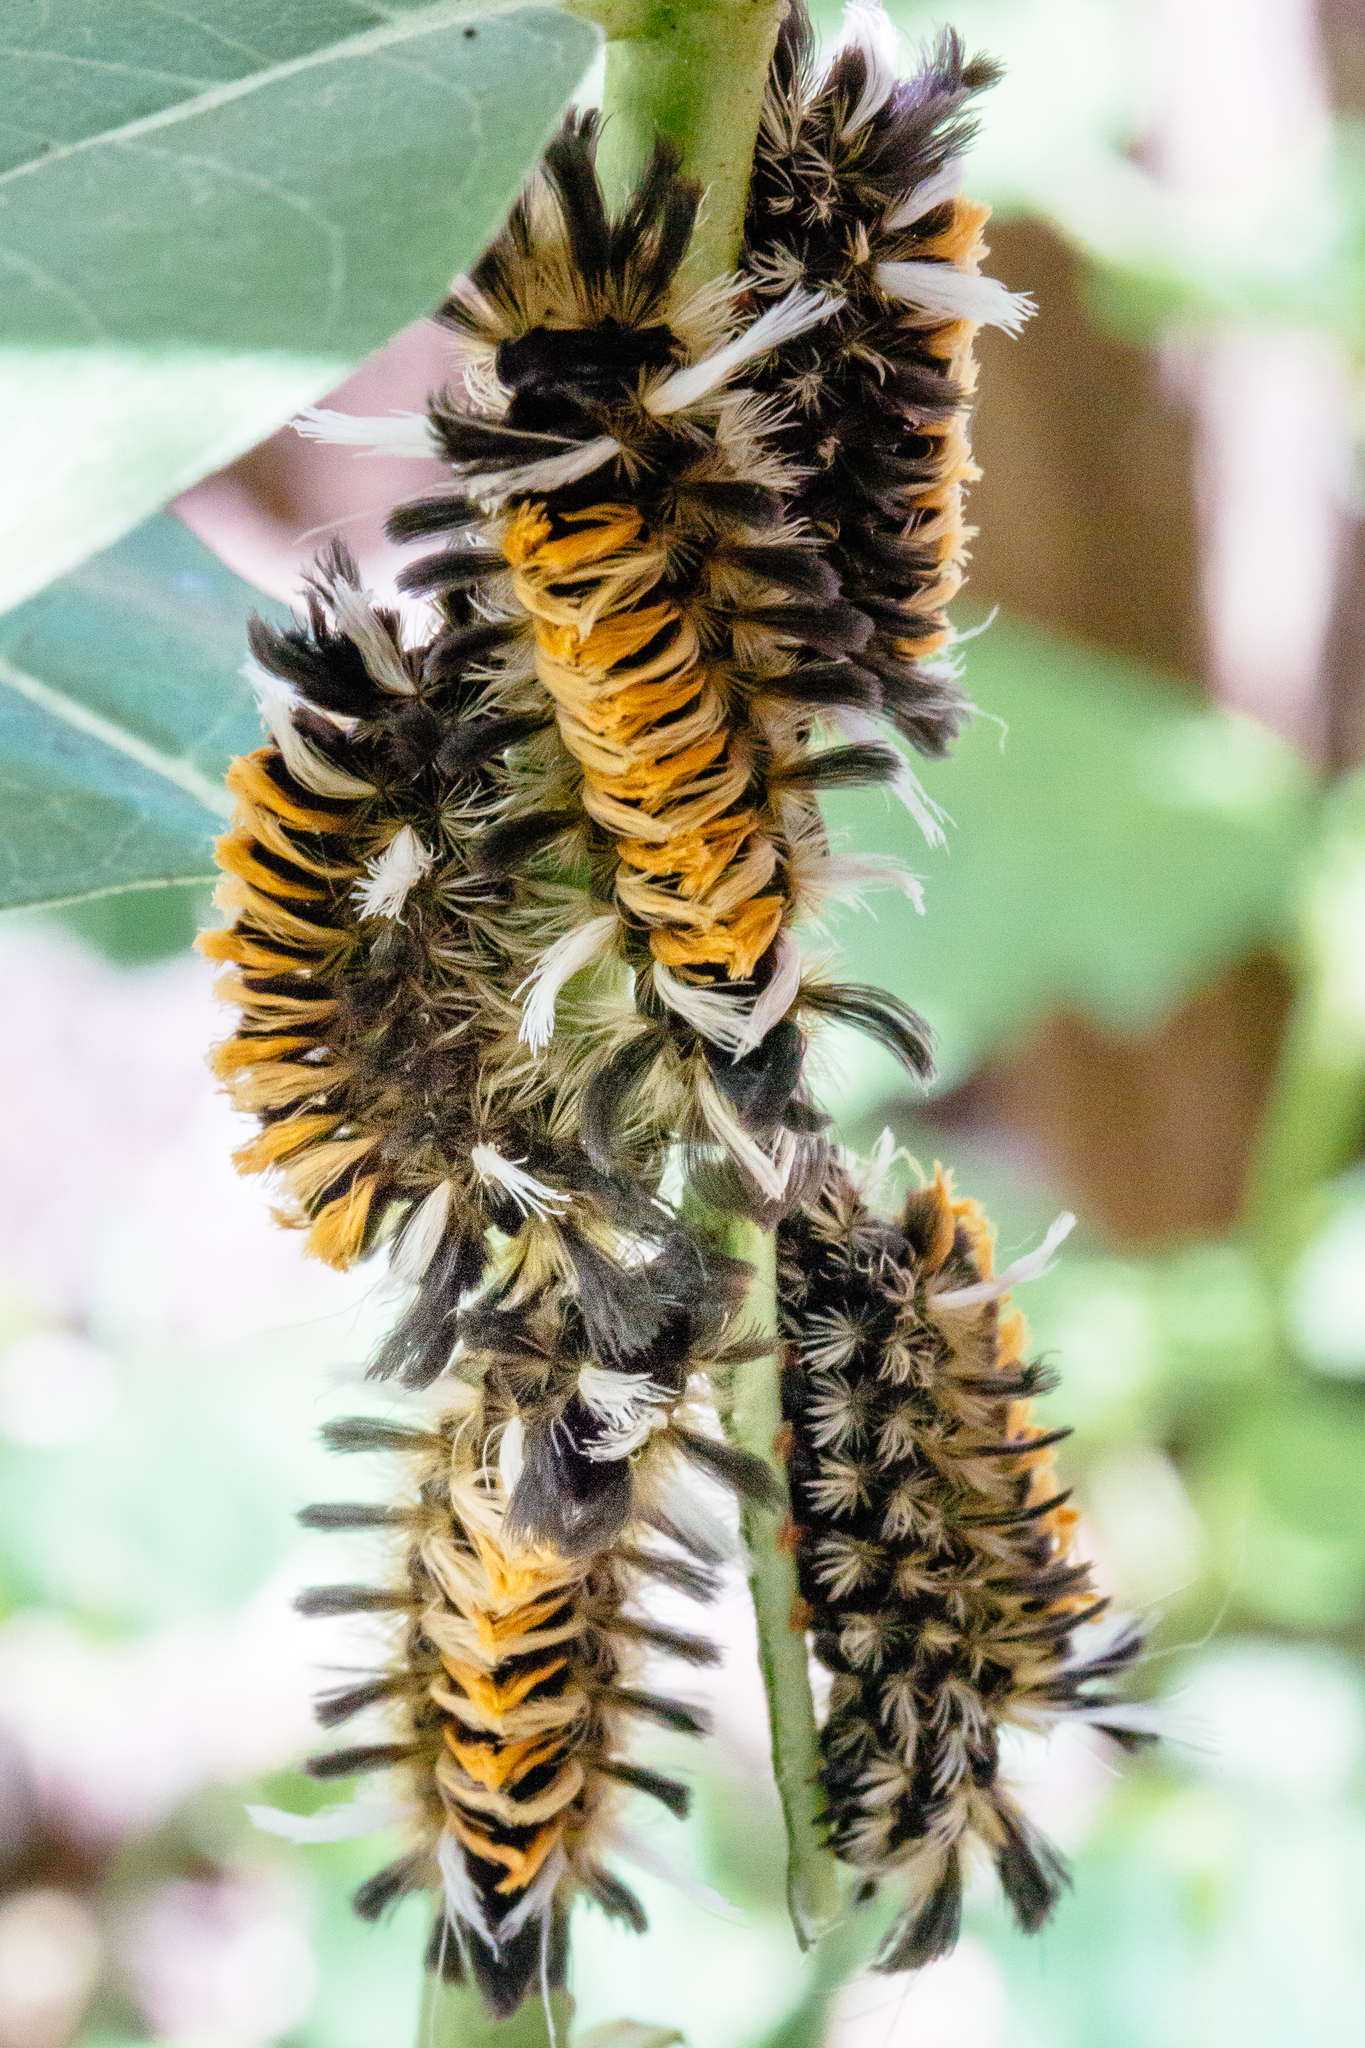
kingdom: Animalia
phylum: Arthropoda
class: Insecta
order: Lepidoptera
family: Erebidae
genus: Euchaetes
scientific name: Euchaetes egle
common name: Milkweed tussock moth
